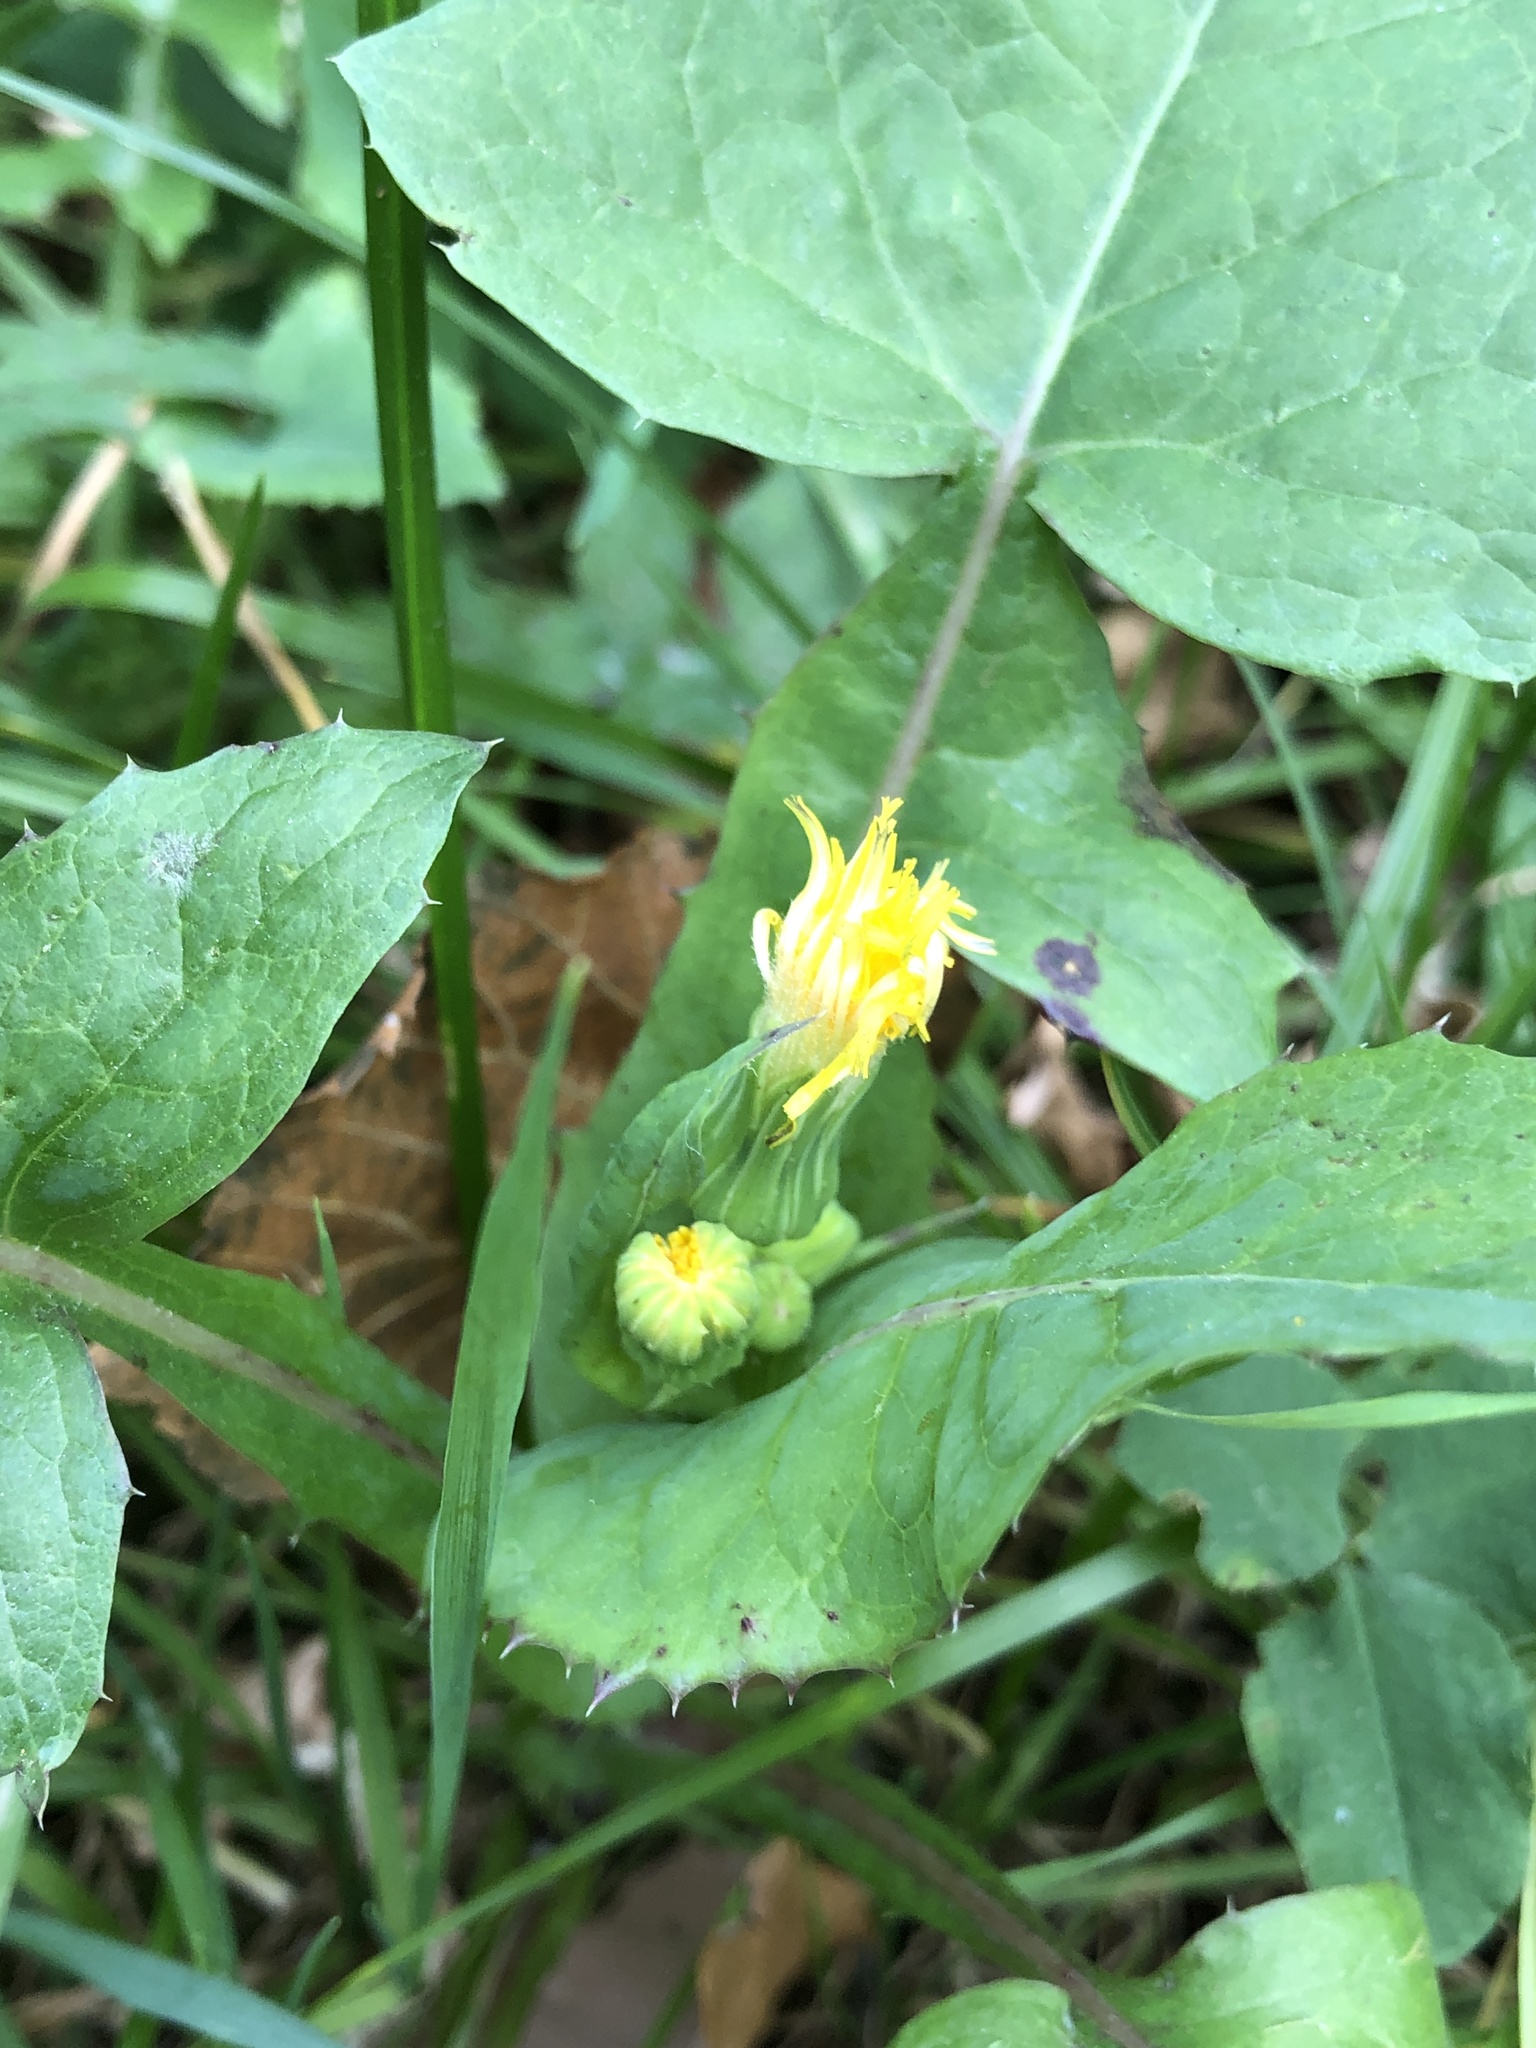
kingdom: Plantae
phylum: Tracheophyta
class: Magnoliopsida
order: Asterales
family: Asteraceae
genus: Sonchus
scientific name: Sonchus oleraceus
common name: Common sowthistle
